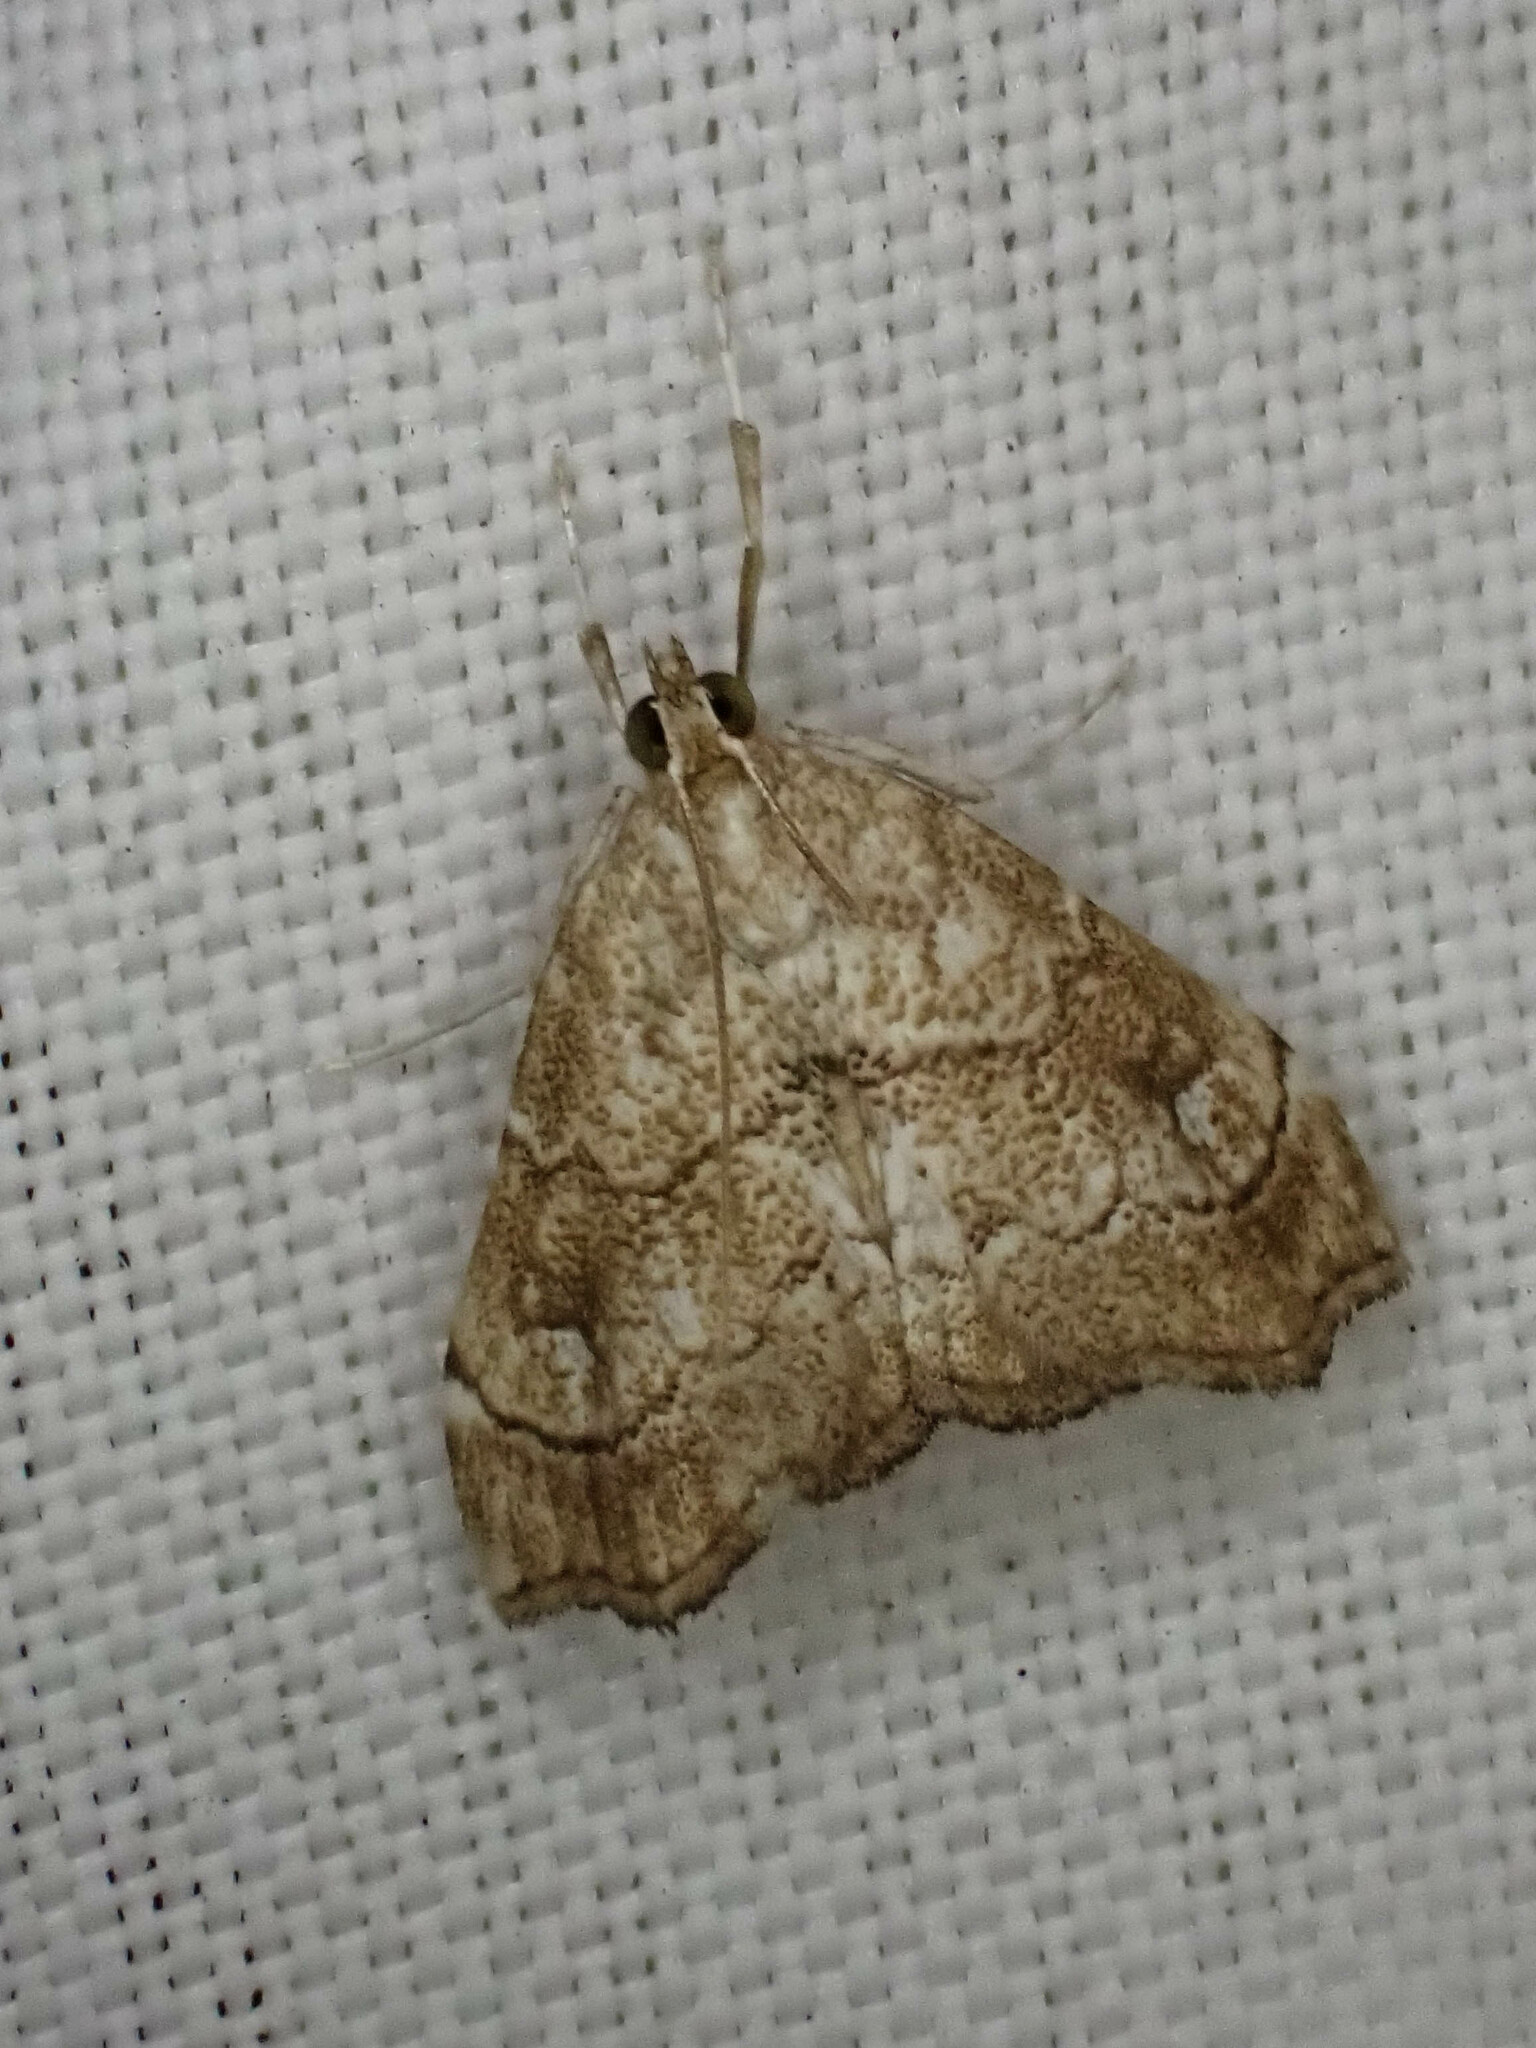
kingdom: Animalia
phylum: Arthropoda
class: Insecta
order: Lepidoptera
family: Crambidae
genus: Scybalistodes
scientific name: Scybalistodes periculosalis
